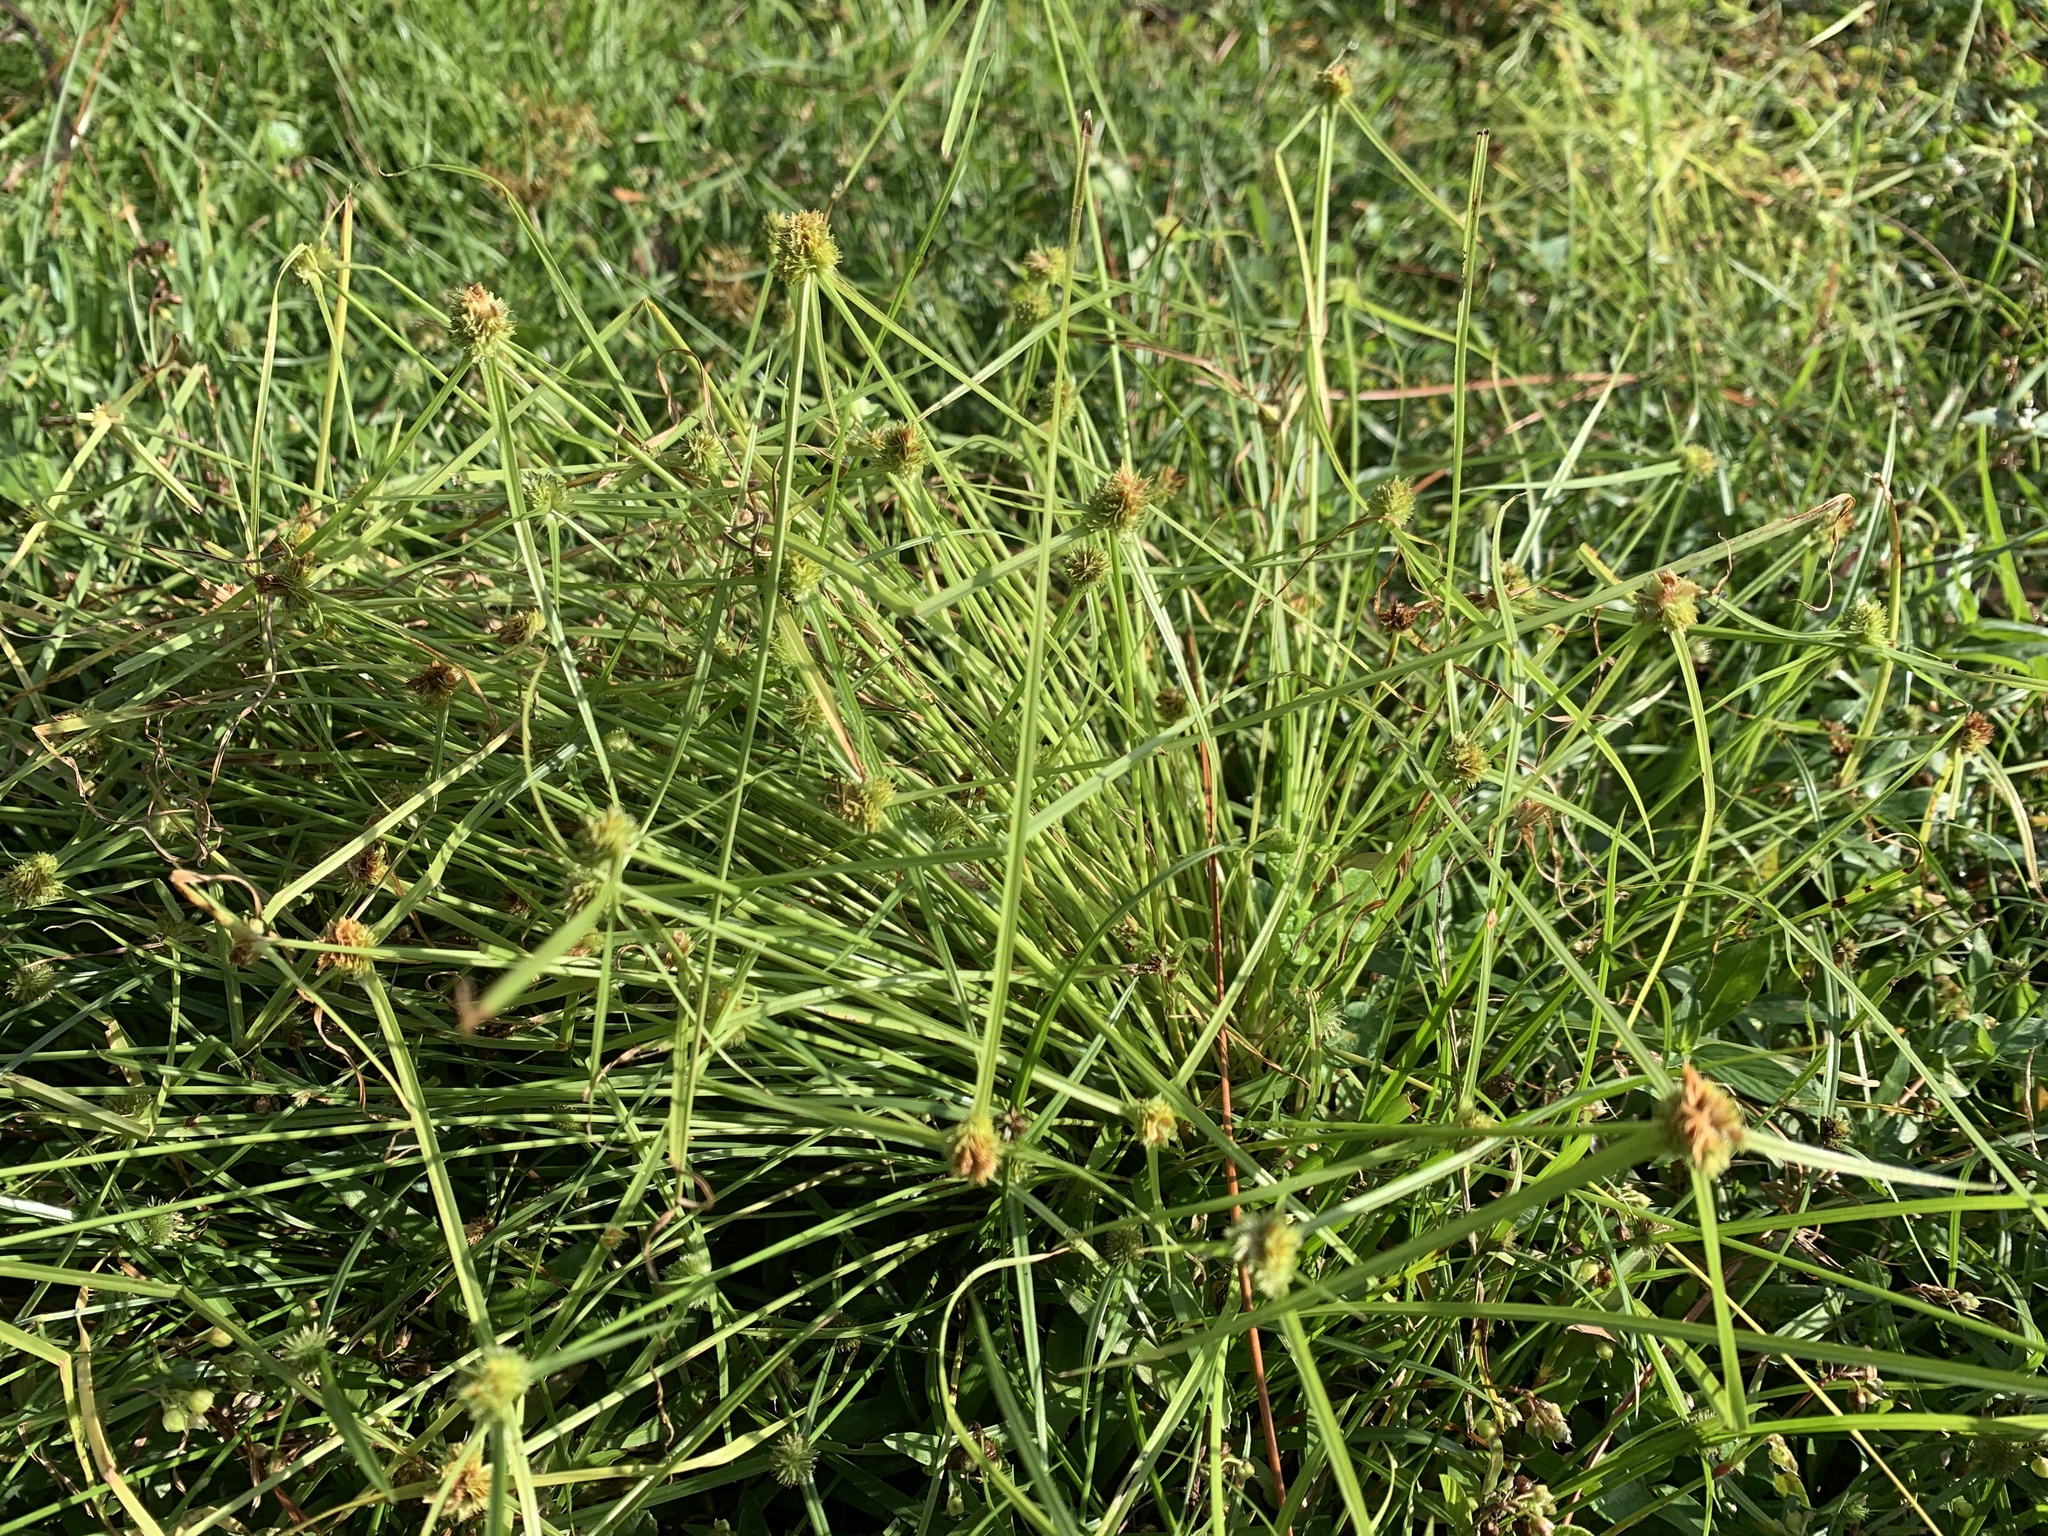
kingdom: Plantae
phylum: Tracheophyta
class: Liliopsida
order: Poales
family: Cyperaceae
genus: Cyperus
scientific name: Cyperus metzii
